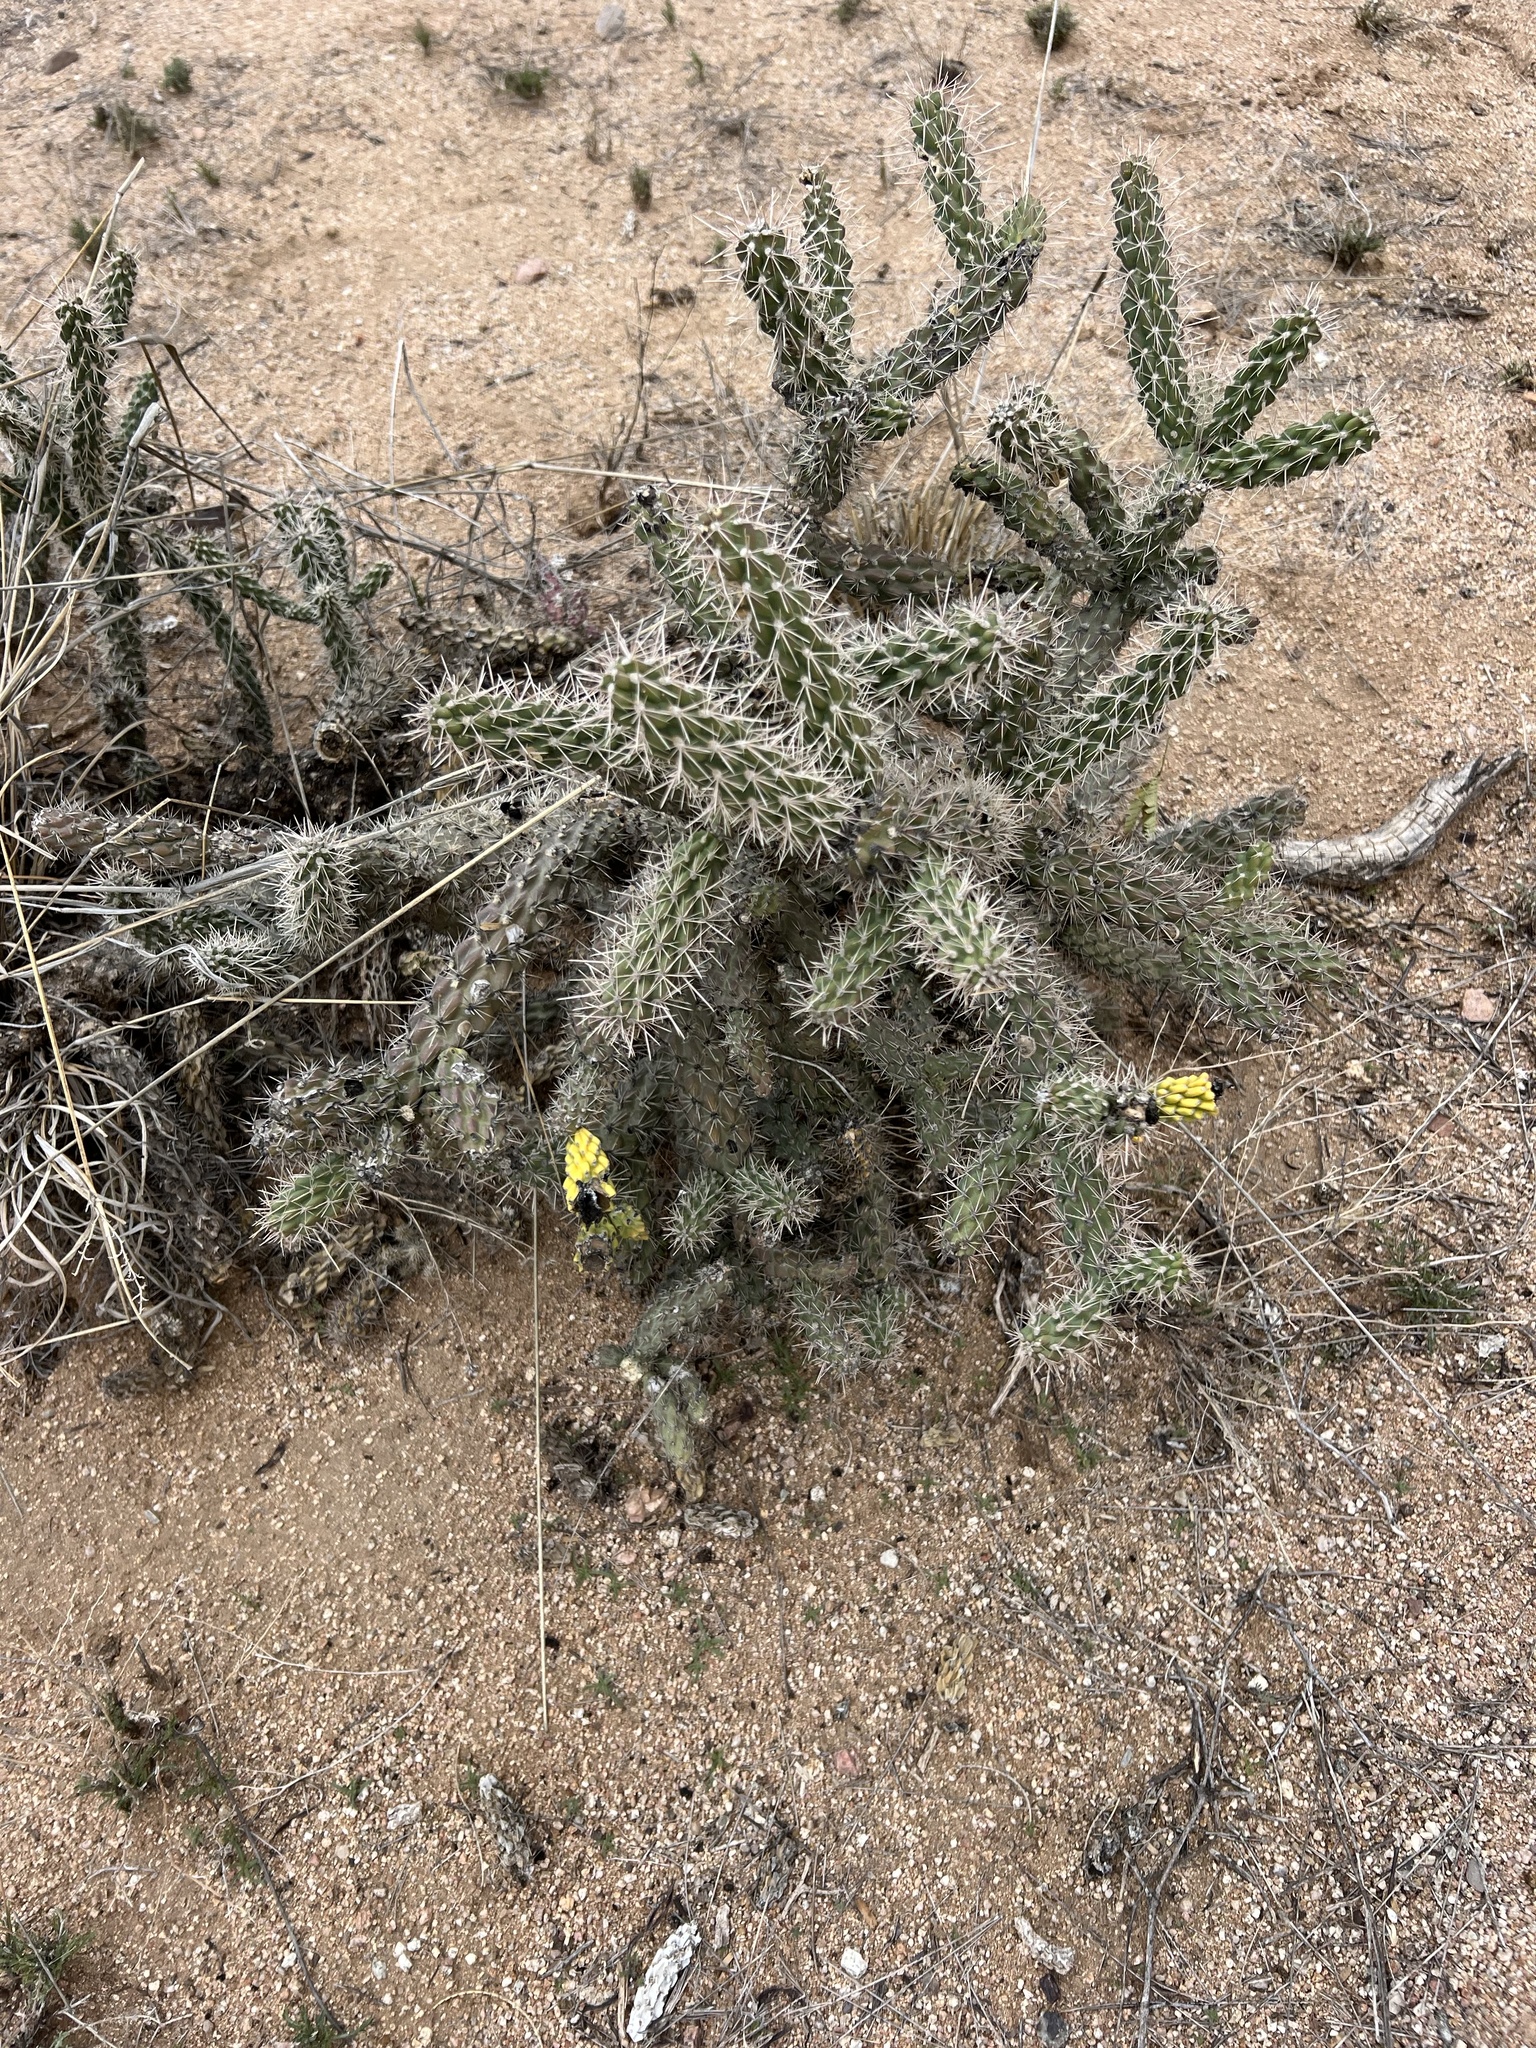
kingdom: Plantae
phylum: Tracheophyta
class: Magnoliopsida
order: Caryophyllales
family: Cactaceae
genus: Cylindropuntia
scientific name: Cylindropuntia imbricata
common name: Candelabrum cactus
